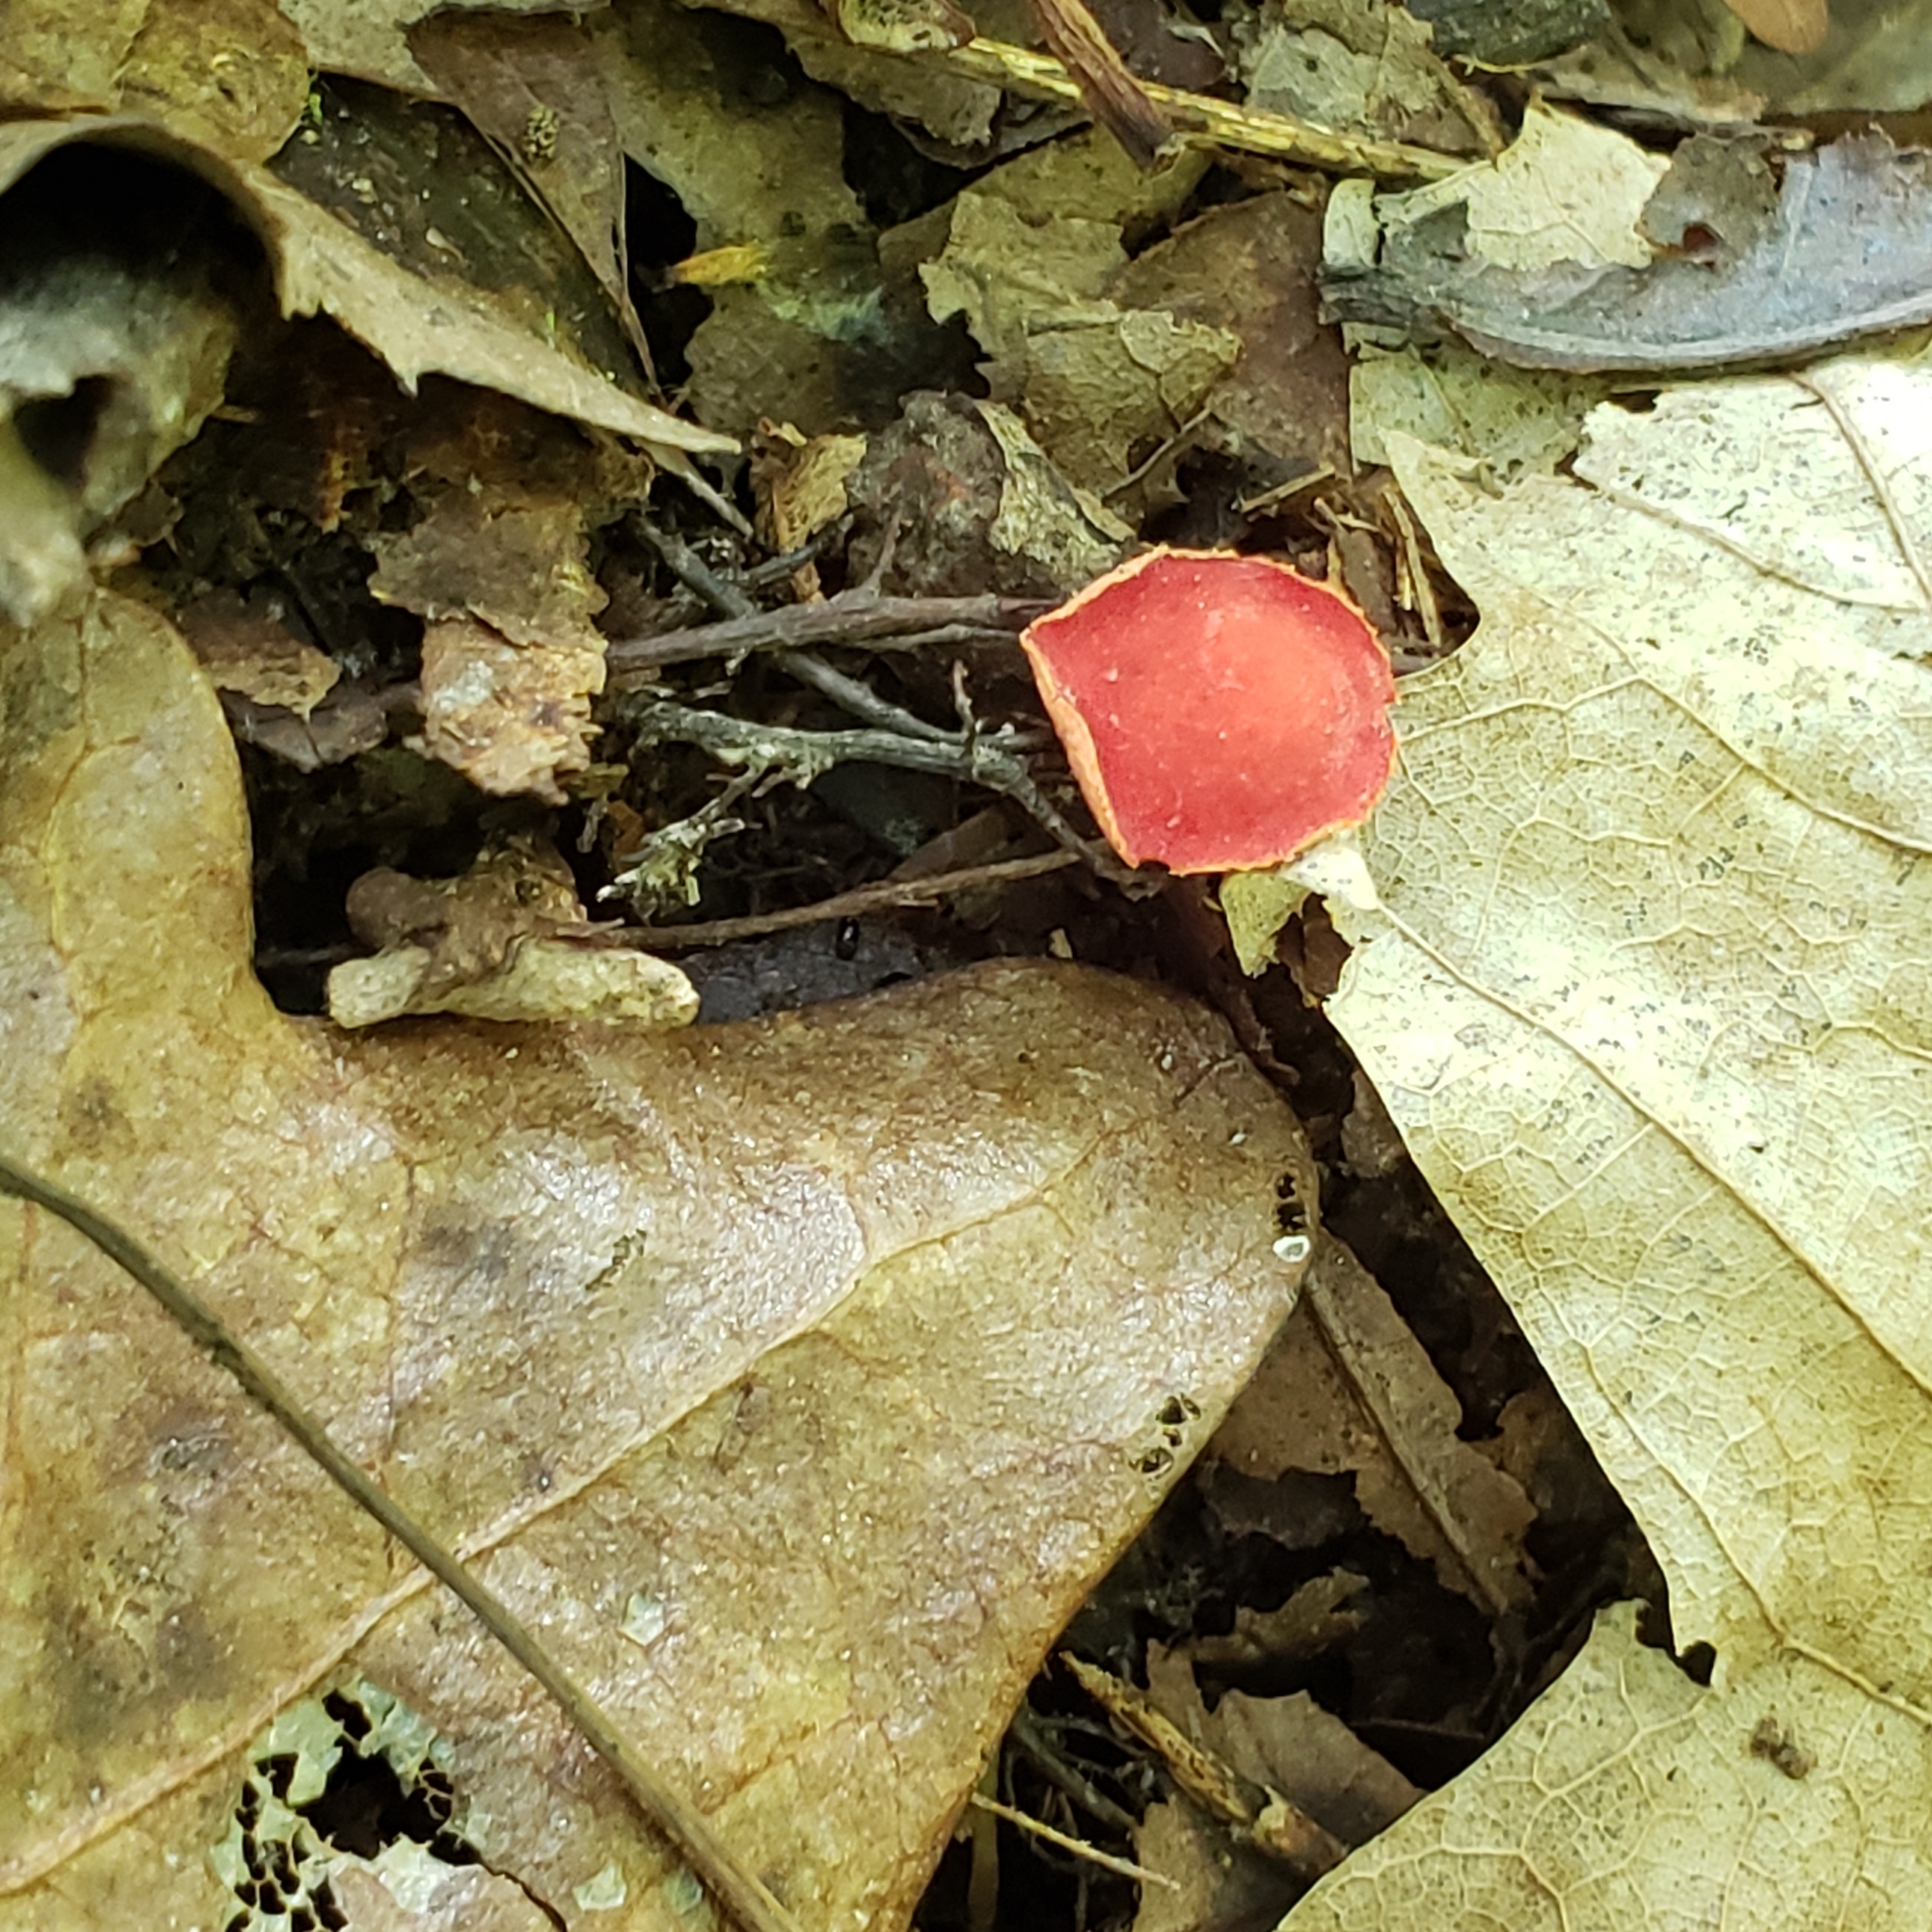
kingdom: Fungi
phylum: Ascomycota
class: Pezizomycetes
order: Pezizales
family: Sarcoscyphaceae
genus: Sarcoscypha
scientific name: Sarcoscypha occidentalis
